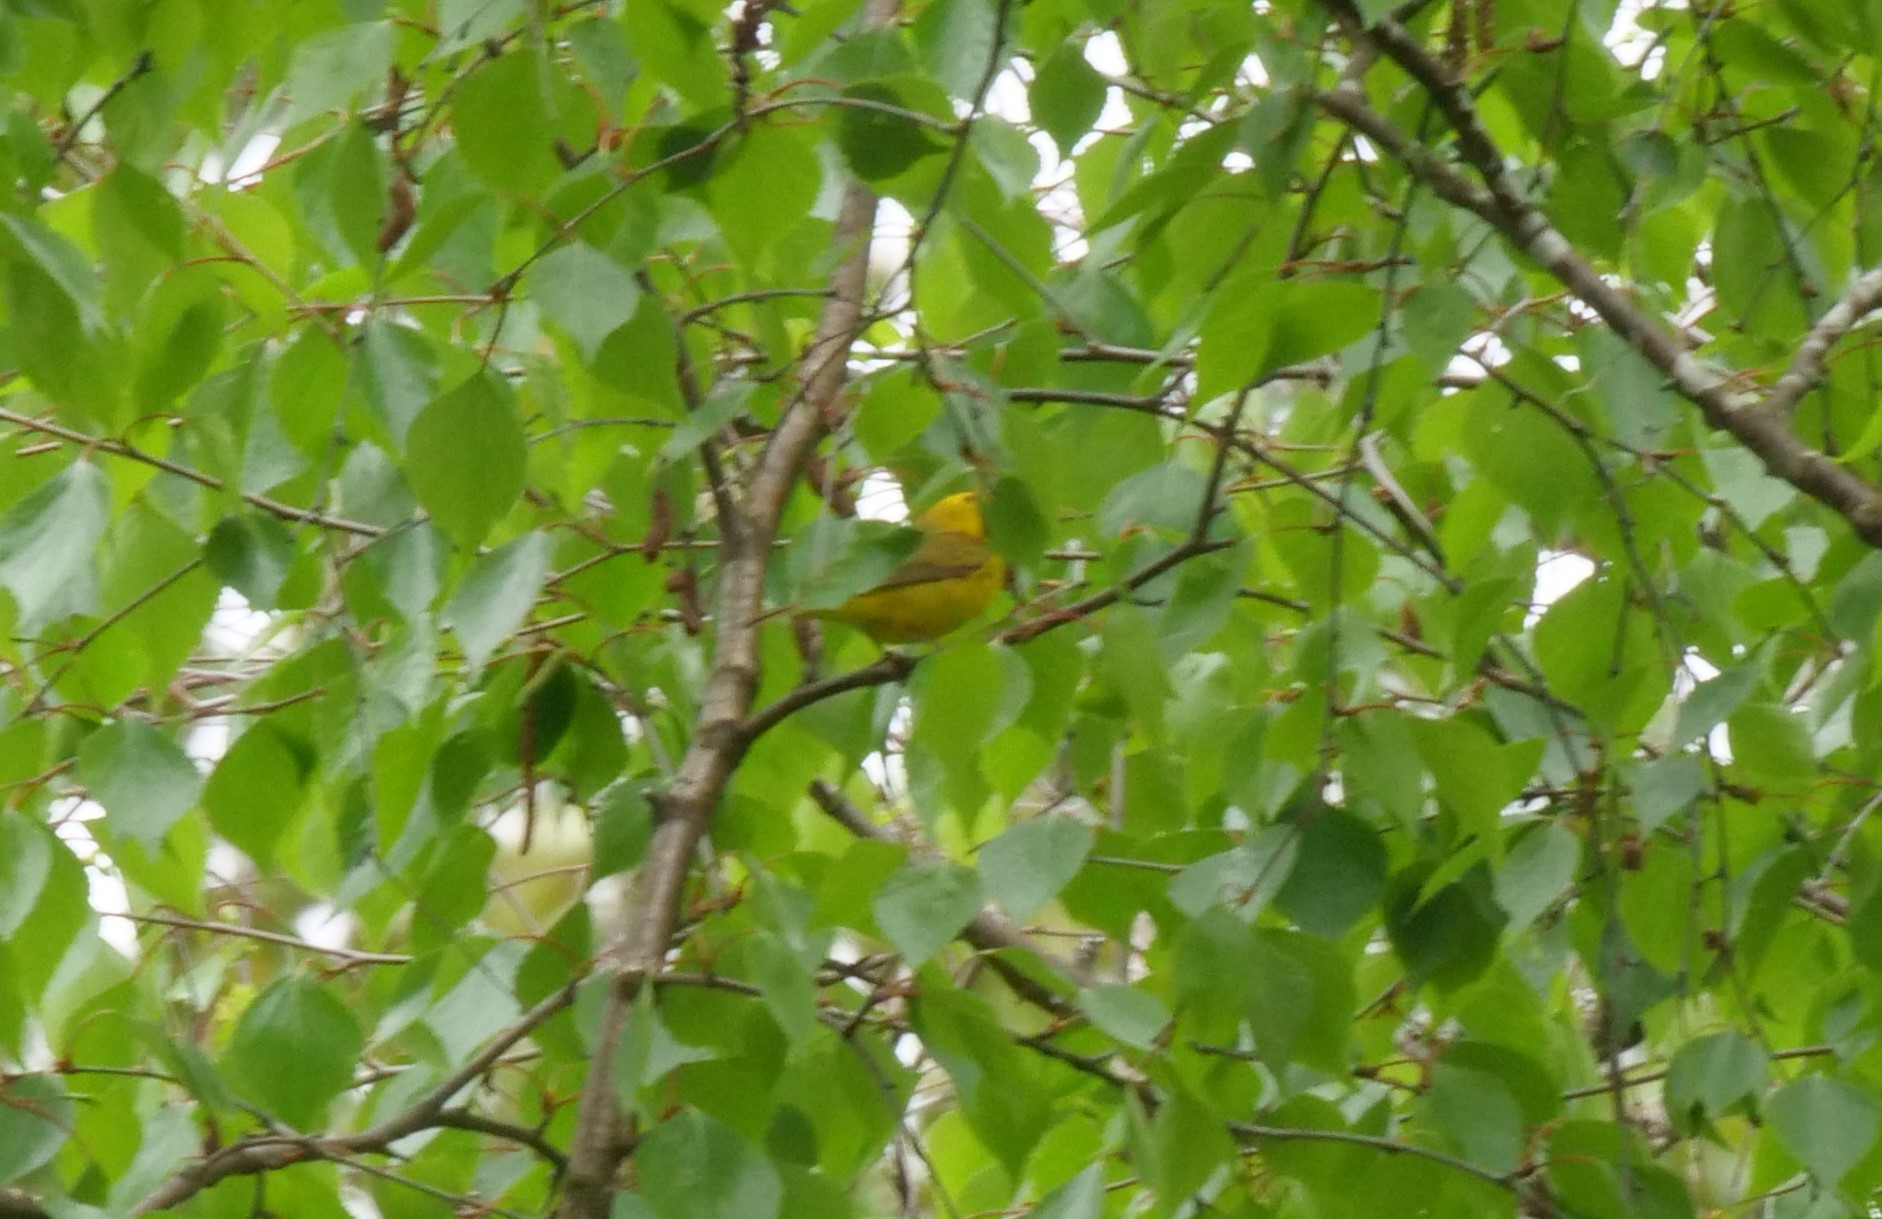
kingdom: Animalia
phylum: Chordata
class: Aves
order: Passeriformes
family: Parulidae
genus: Cardellina
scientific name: Cardellina pusilla
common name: Wilson's warbler
